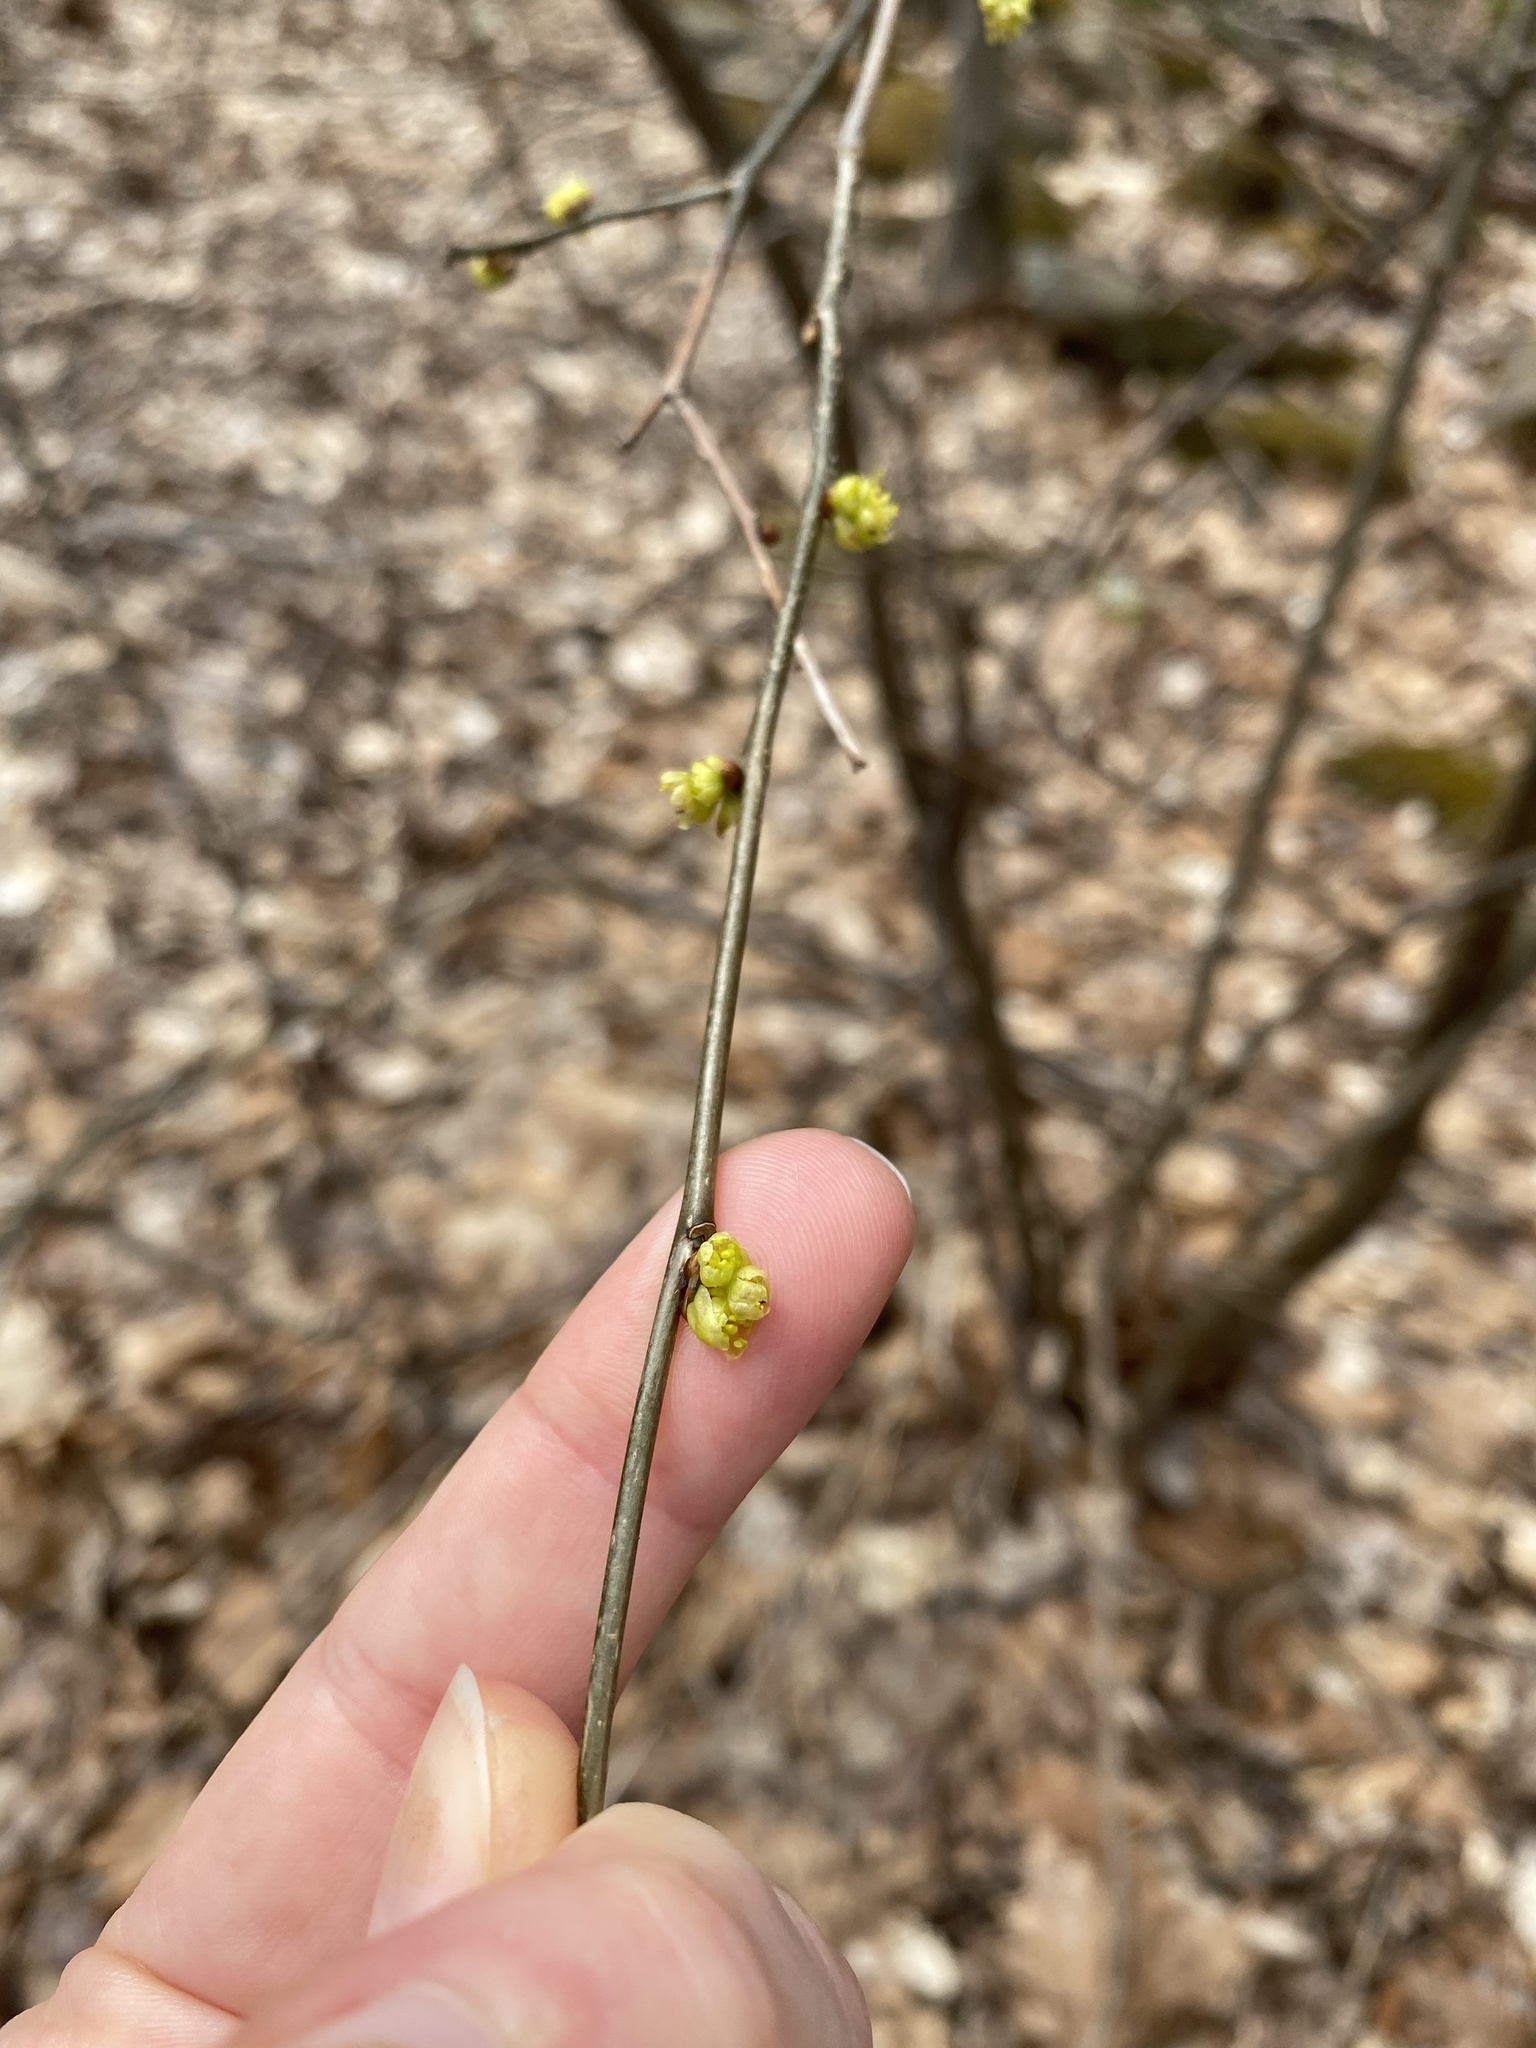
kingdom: Plantae
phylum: Tracheophyta
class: Magnoliopsida
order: Laurales
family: Lauraceae
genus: Lindera
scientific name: Lindera benzoin
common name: Spicebush
